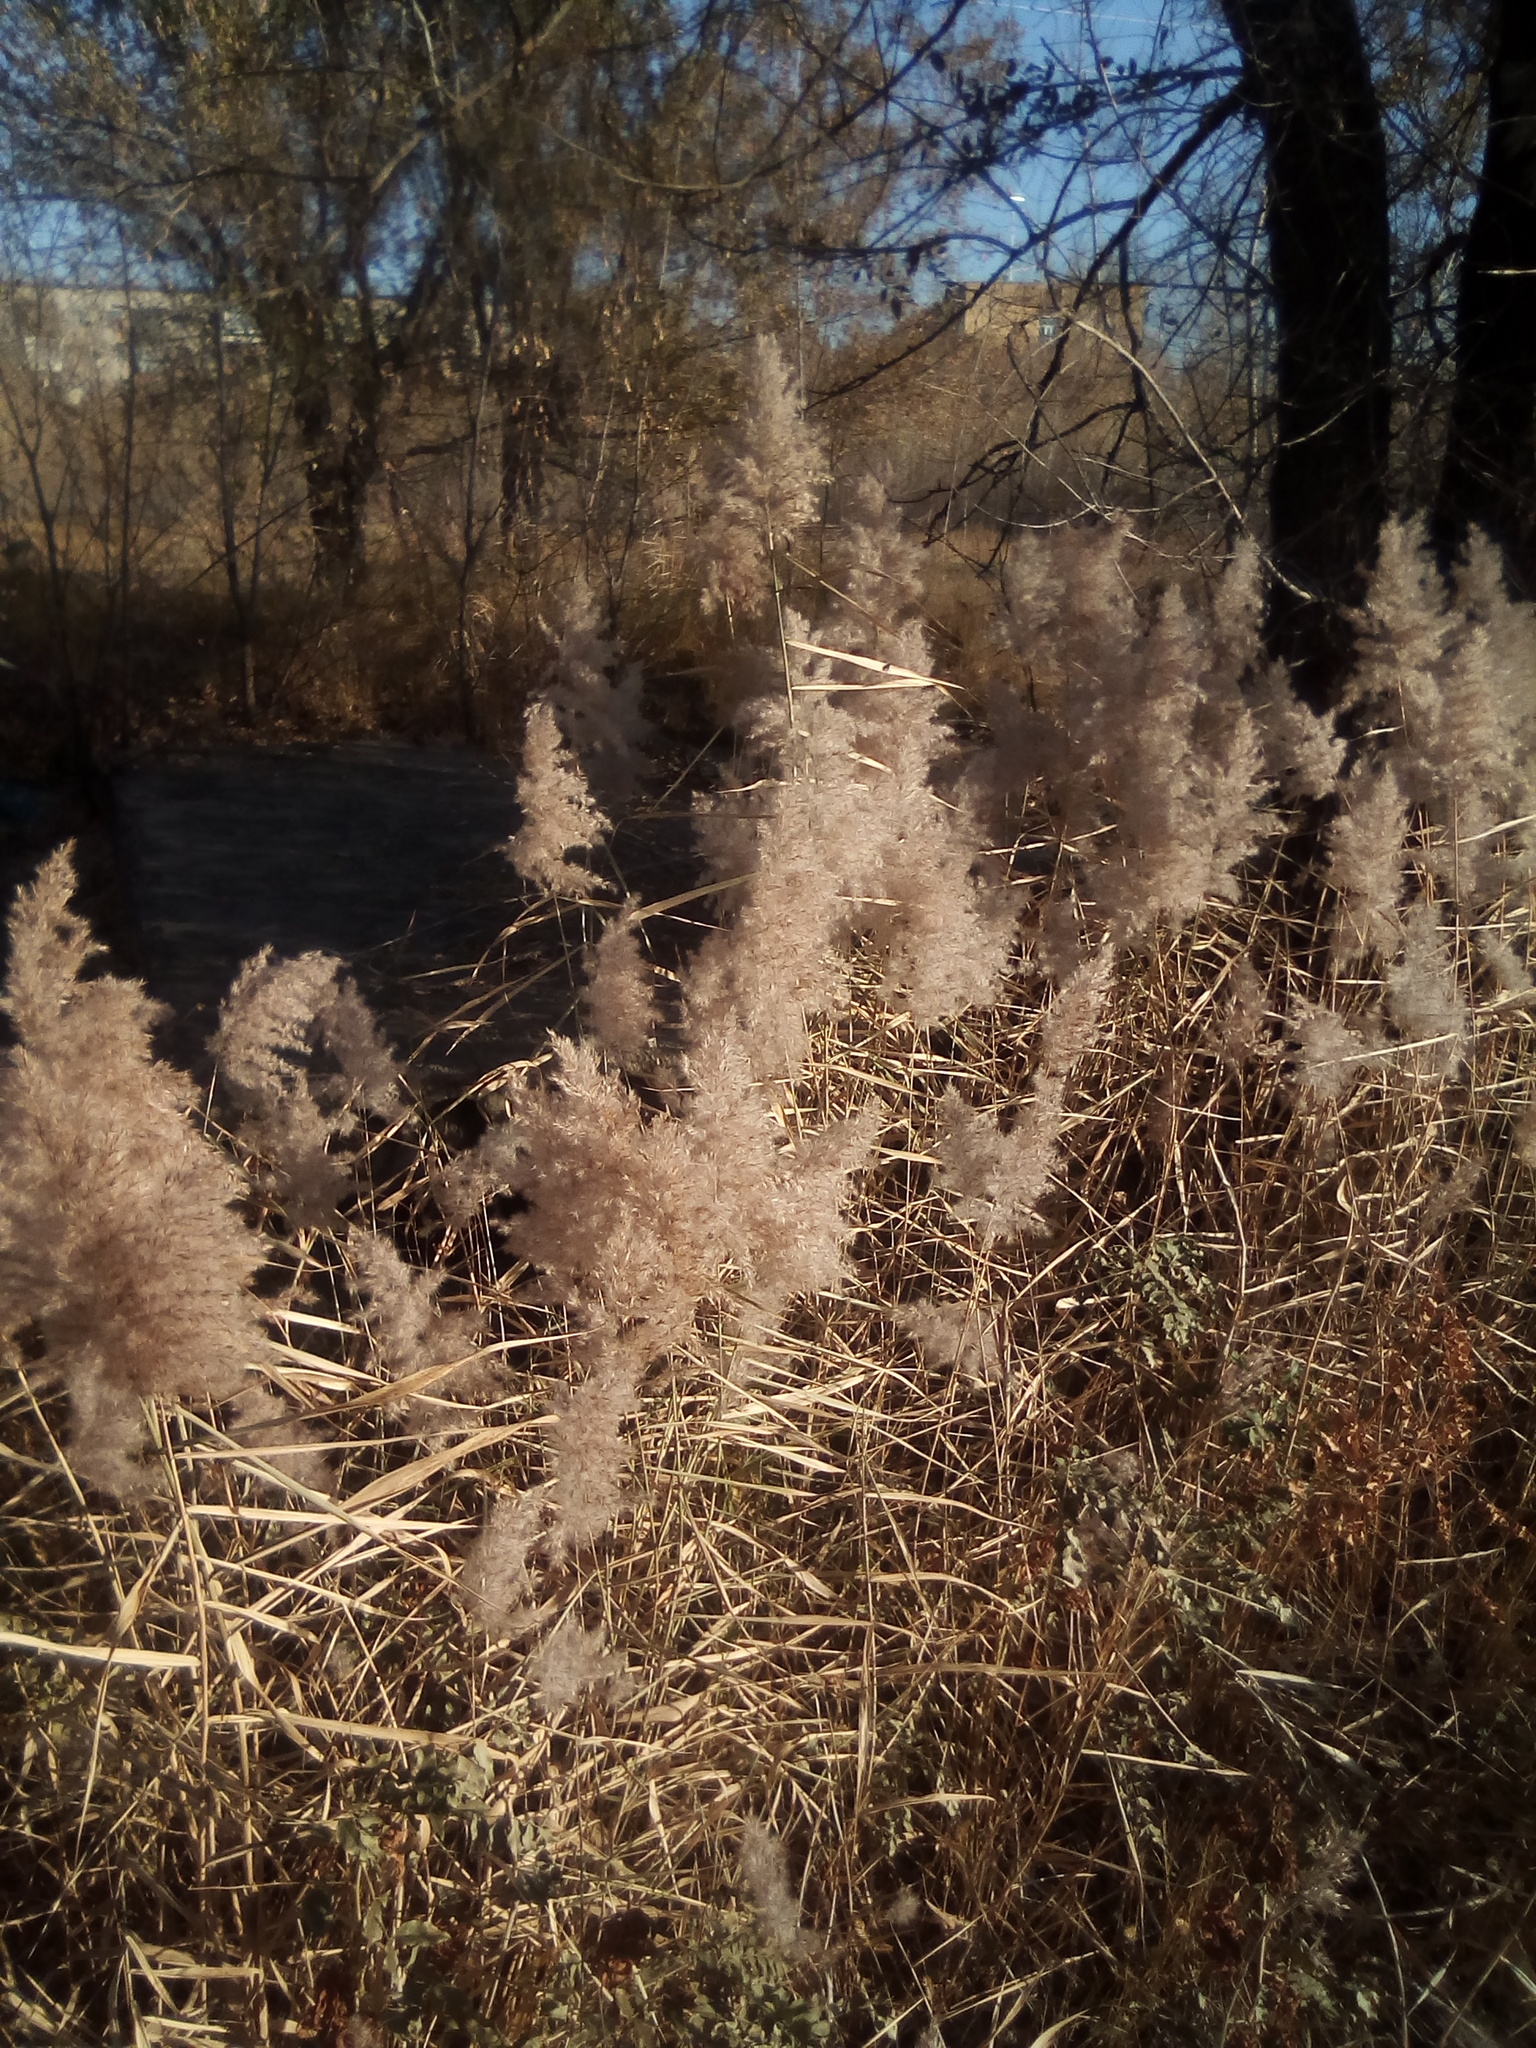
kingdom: Plantae
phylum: Tracheophyta
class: Liliopsida
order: Poales
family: Poaceae
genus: Phragmites
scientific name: Phragmites australis
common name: Common reed
